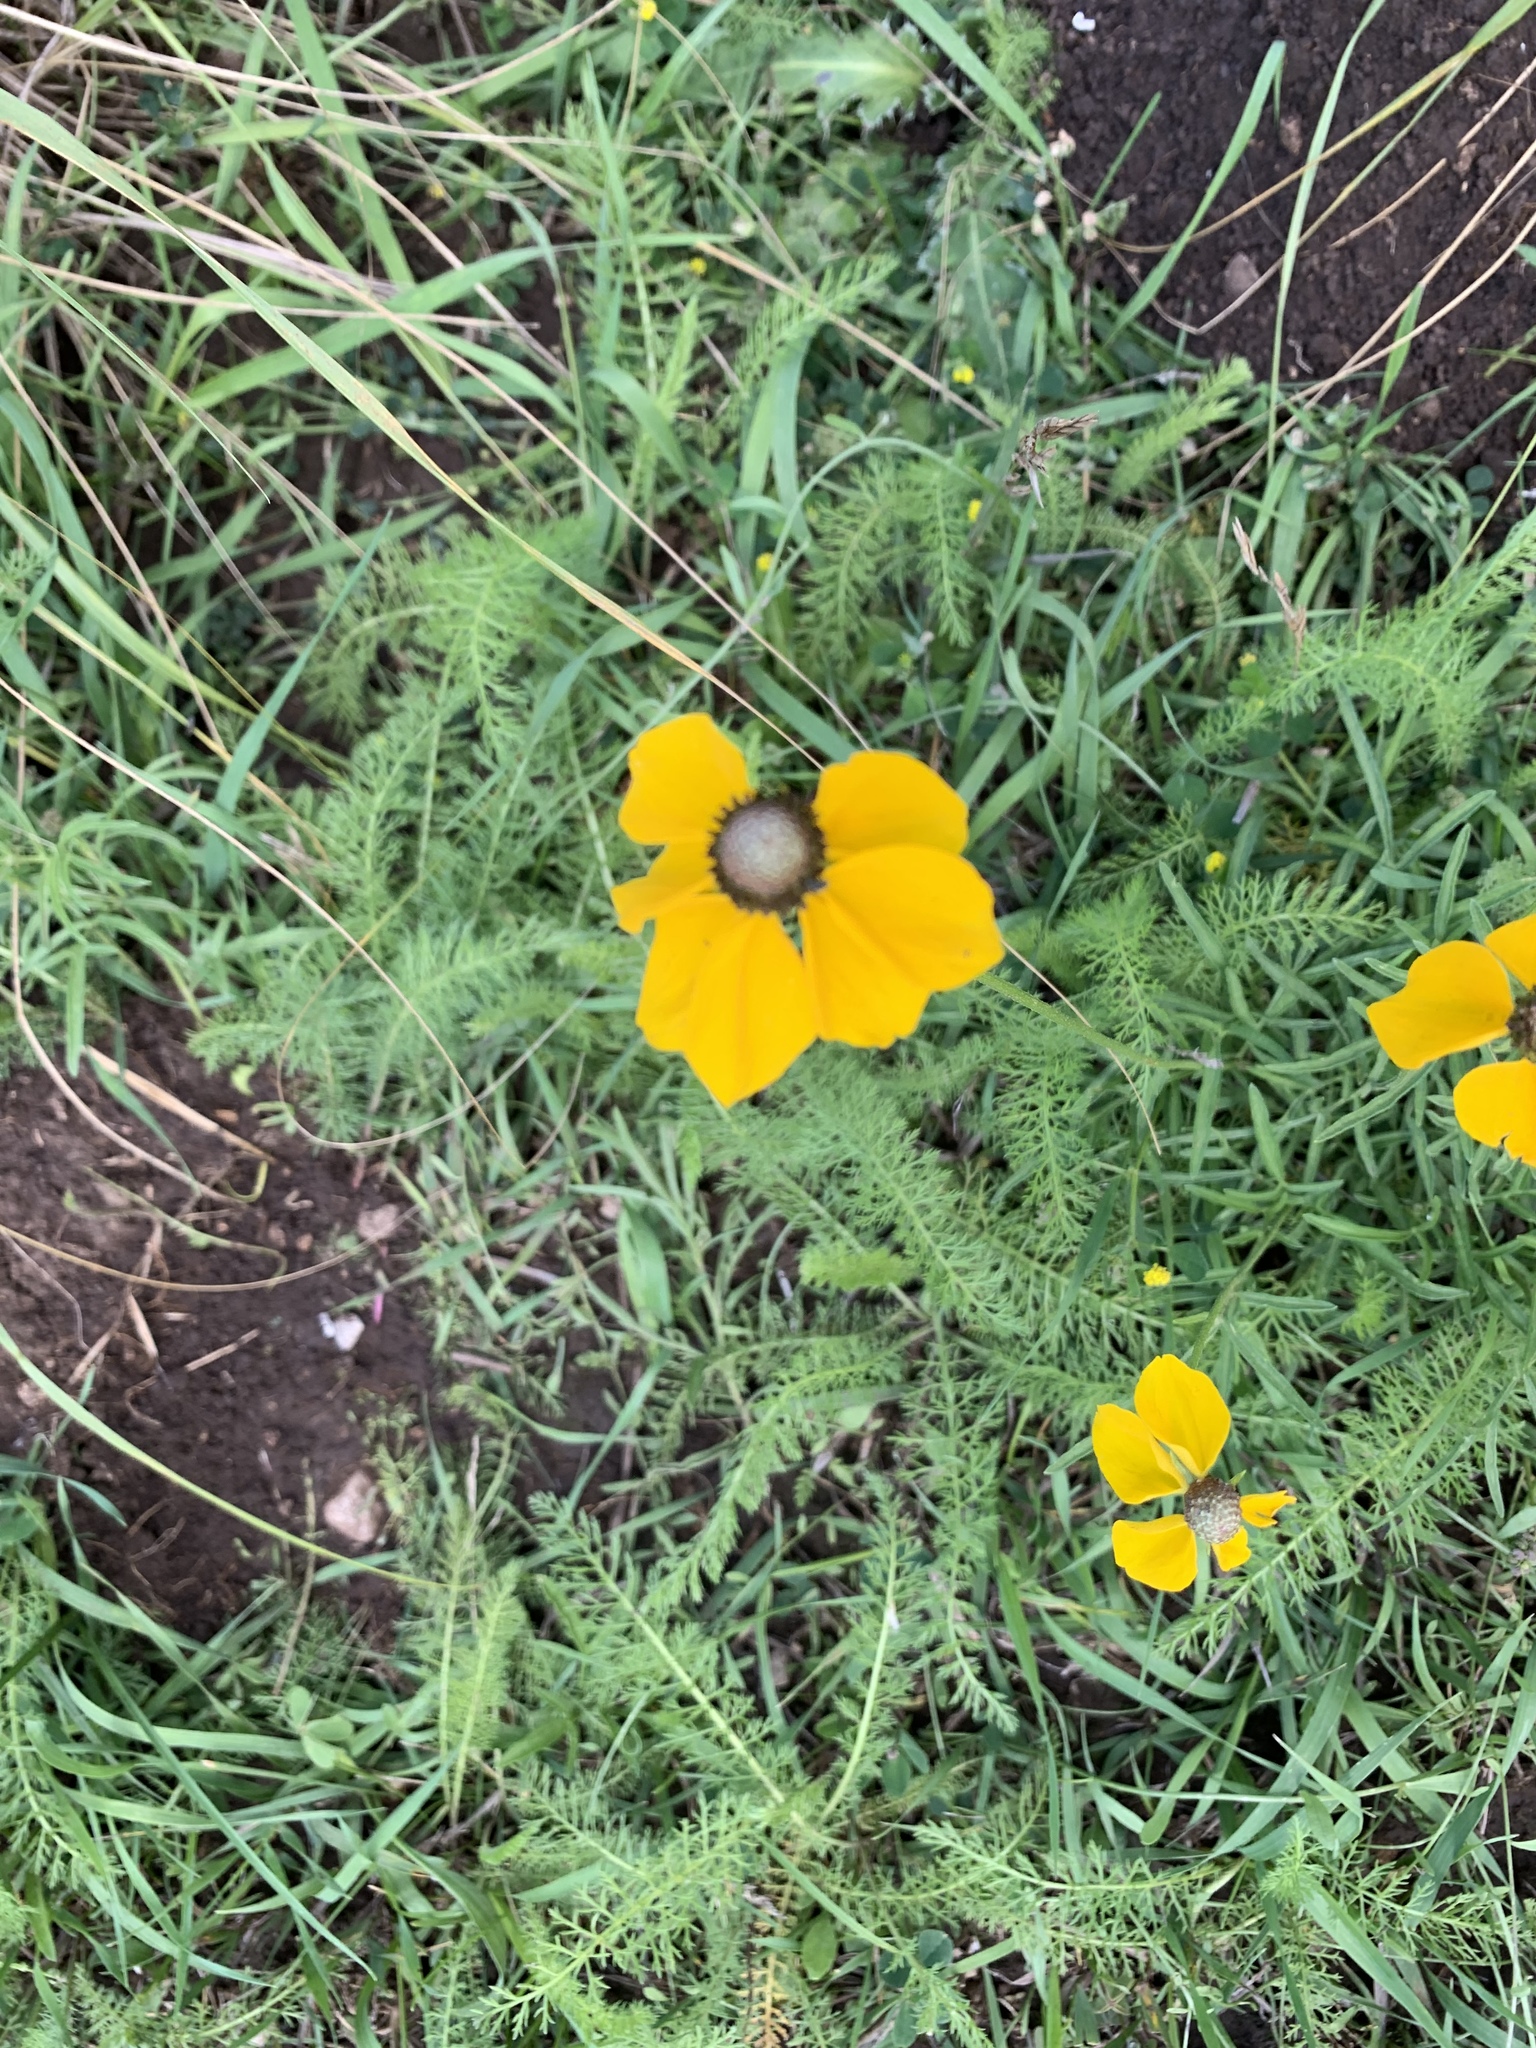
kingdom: Plantae
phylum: Tracheophyta
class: Magnoliopsida
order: Asterales
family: Asteraceae
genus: Ratibida
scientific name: Ratibida columnifera
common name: Prairie coneflower
